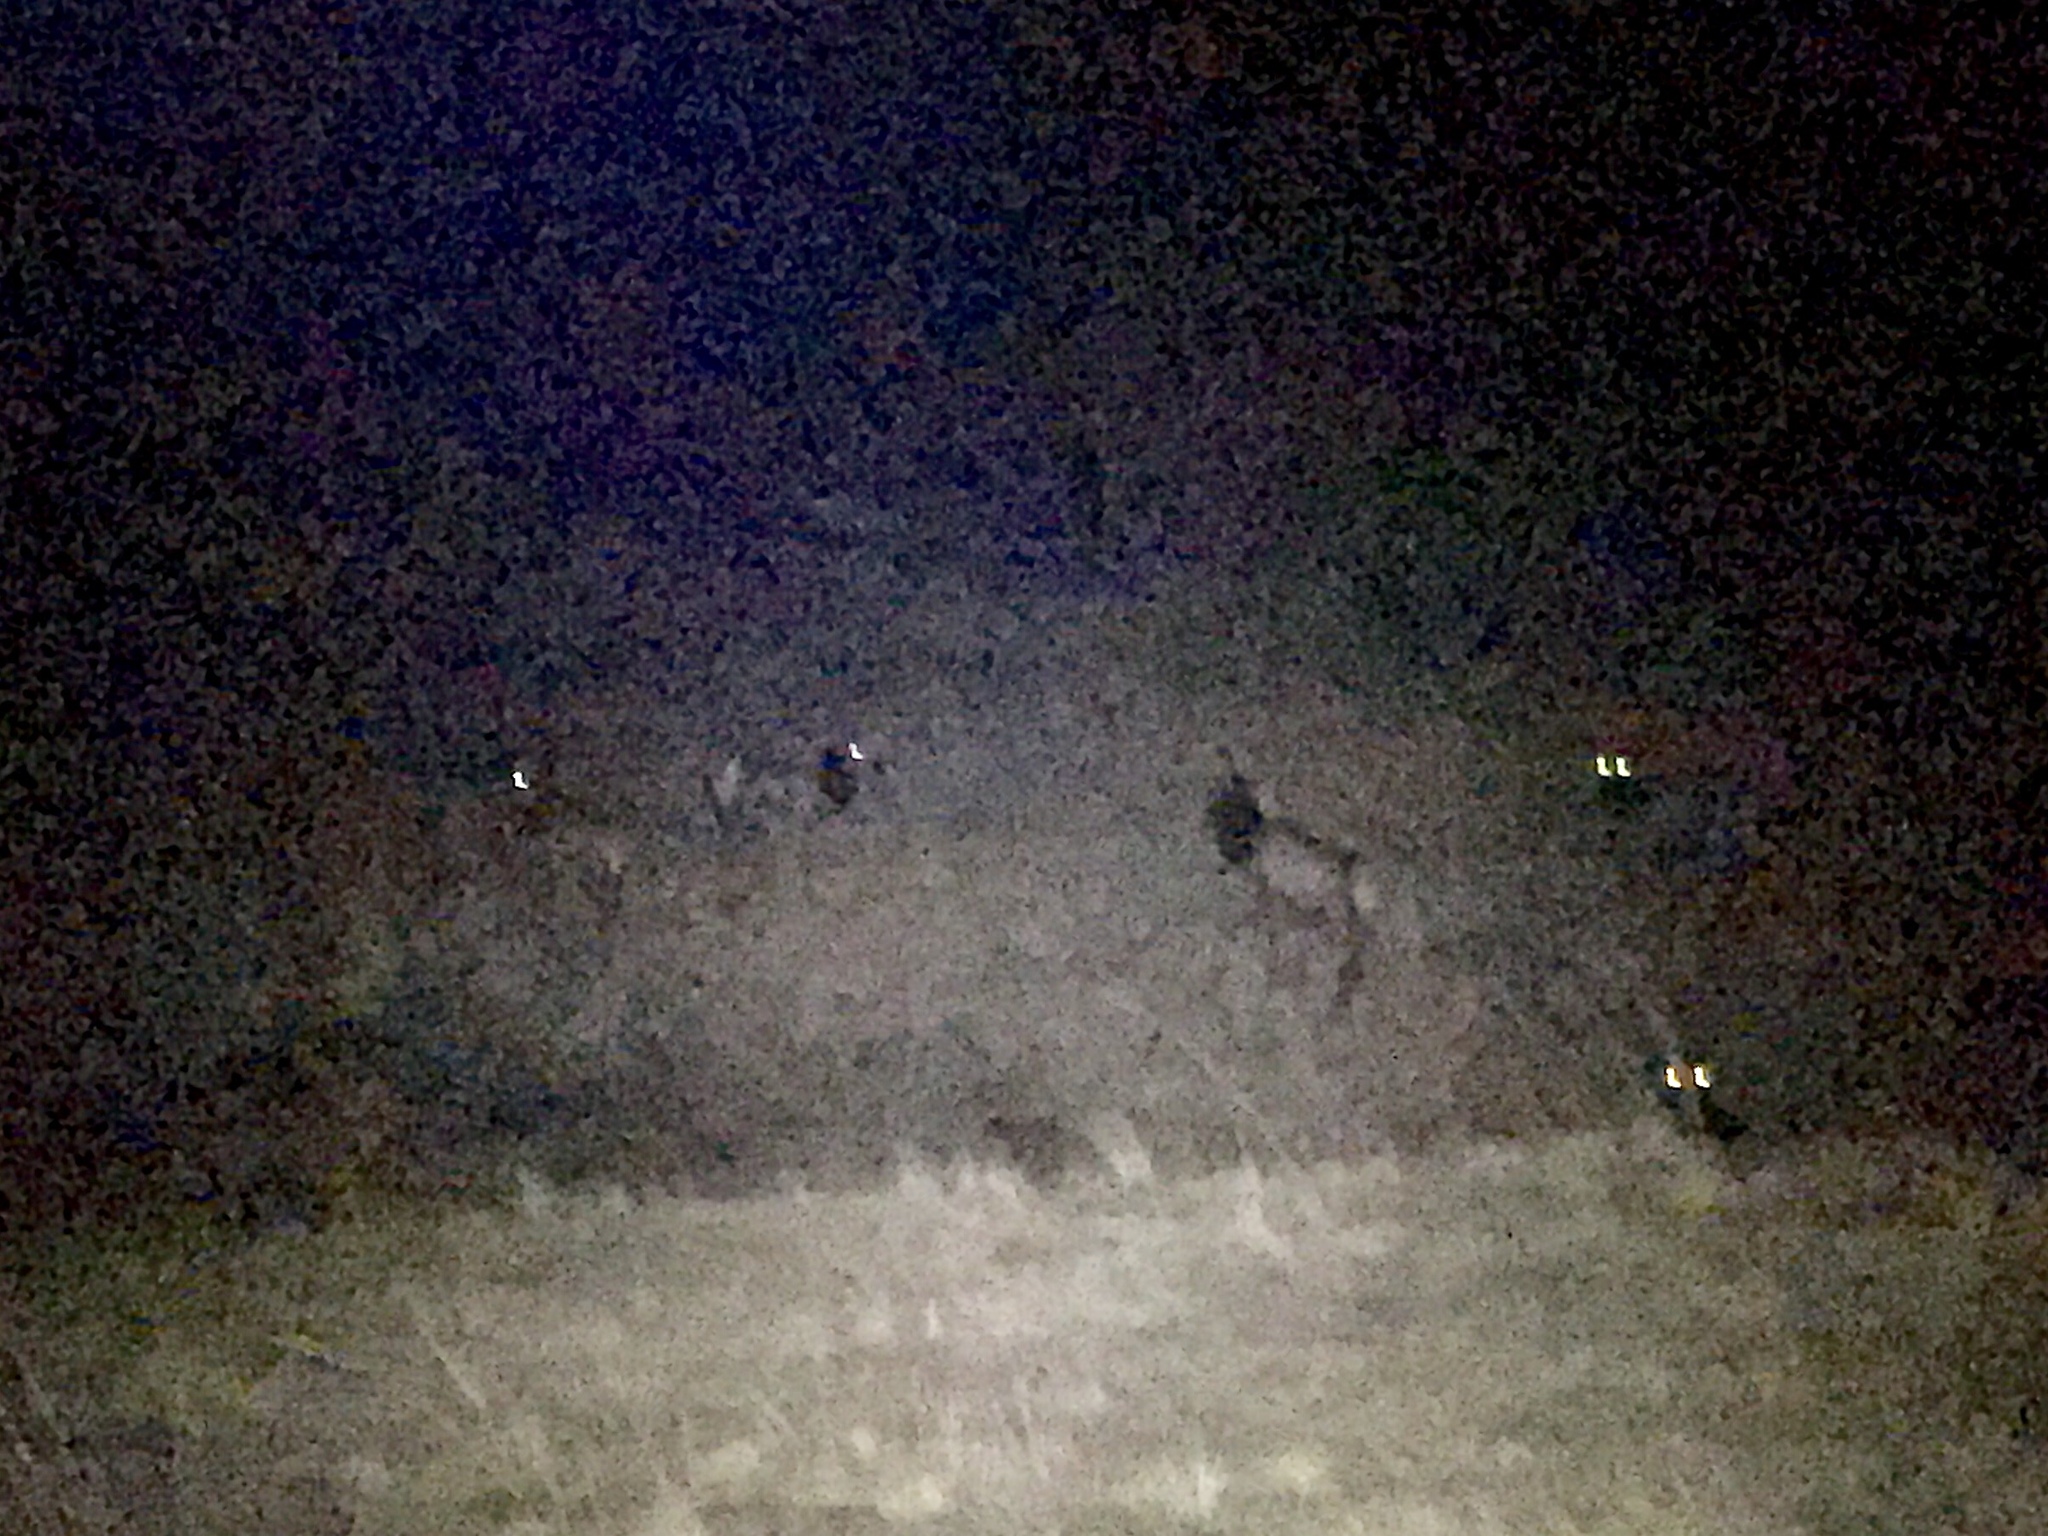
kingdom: Animalia
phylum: Chordata
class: Mammalia
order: Artiodactyla
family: Cervidae
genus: Cervus
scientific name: Cervus elaphus
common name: Red deer
